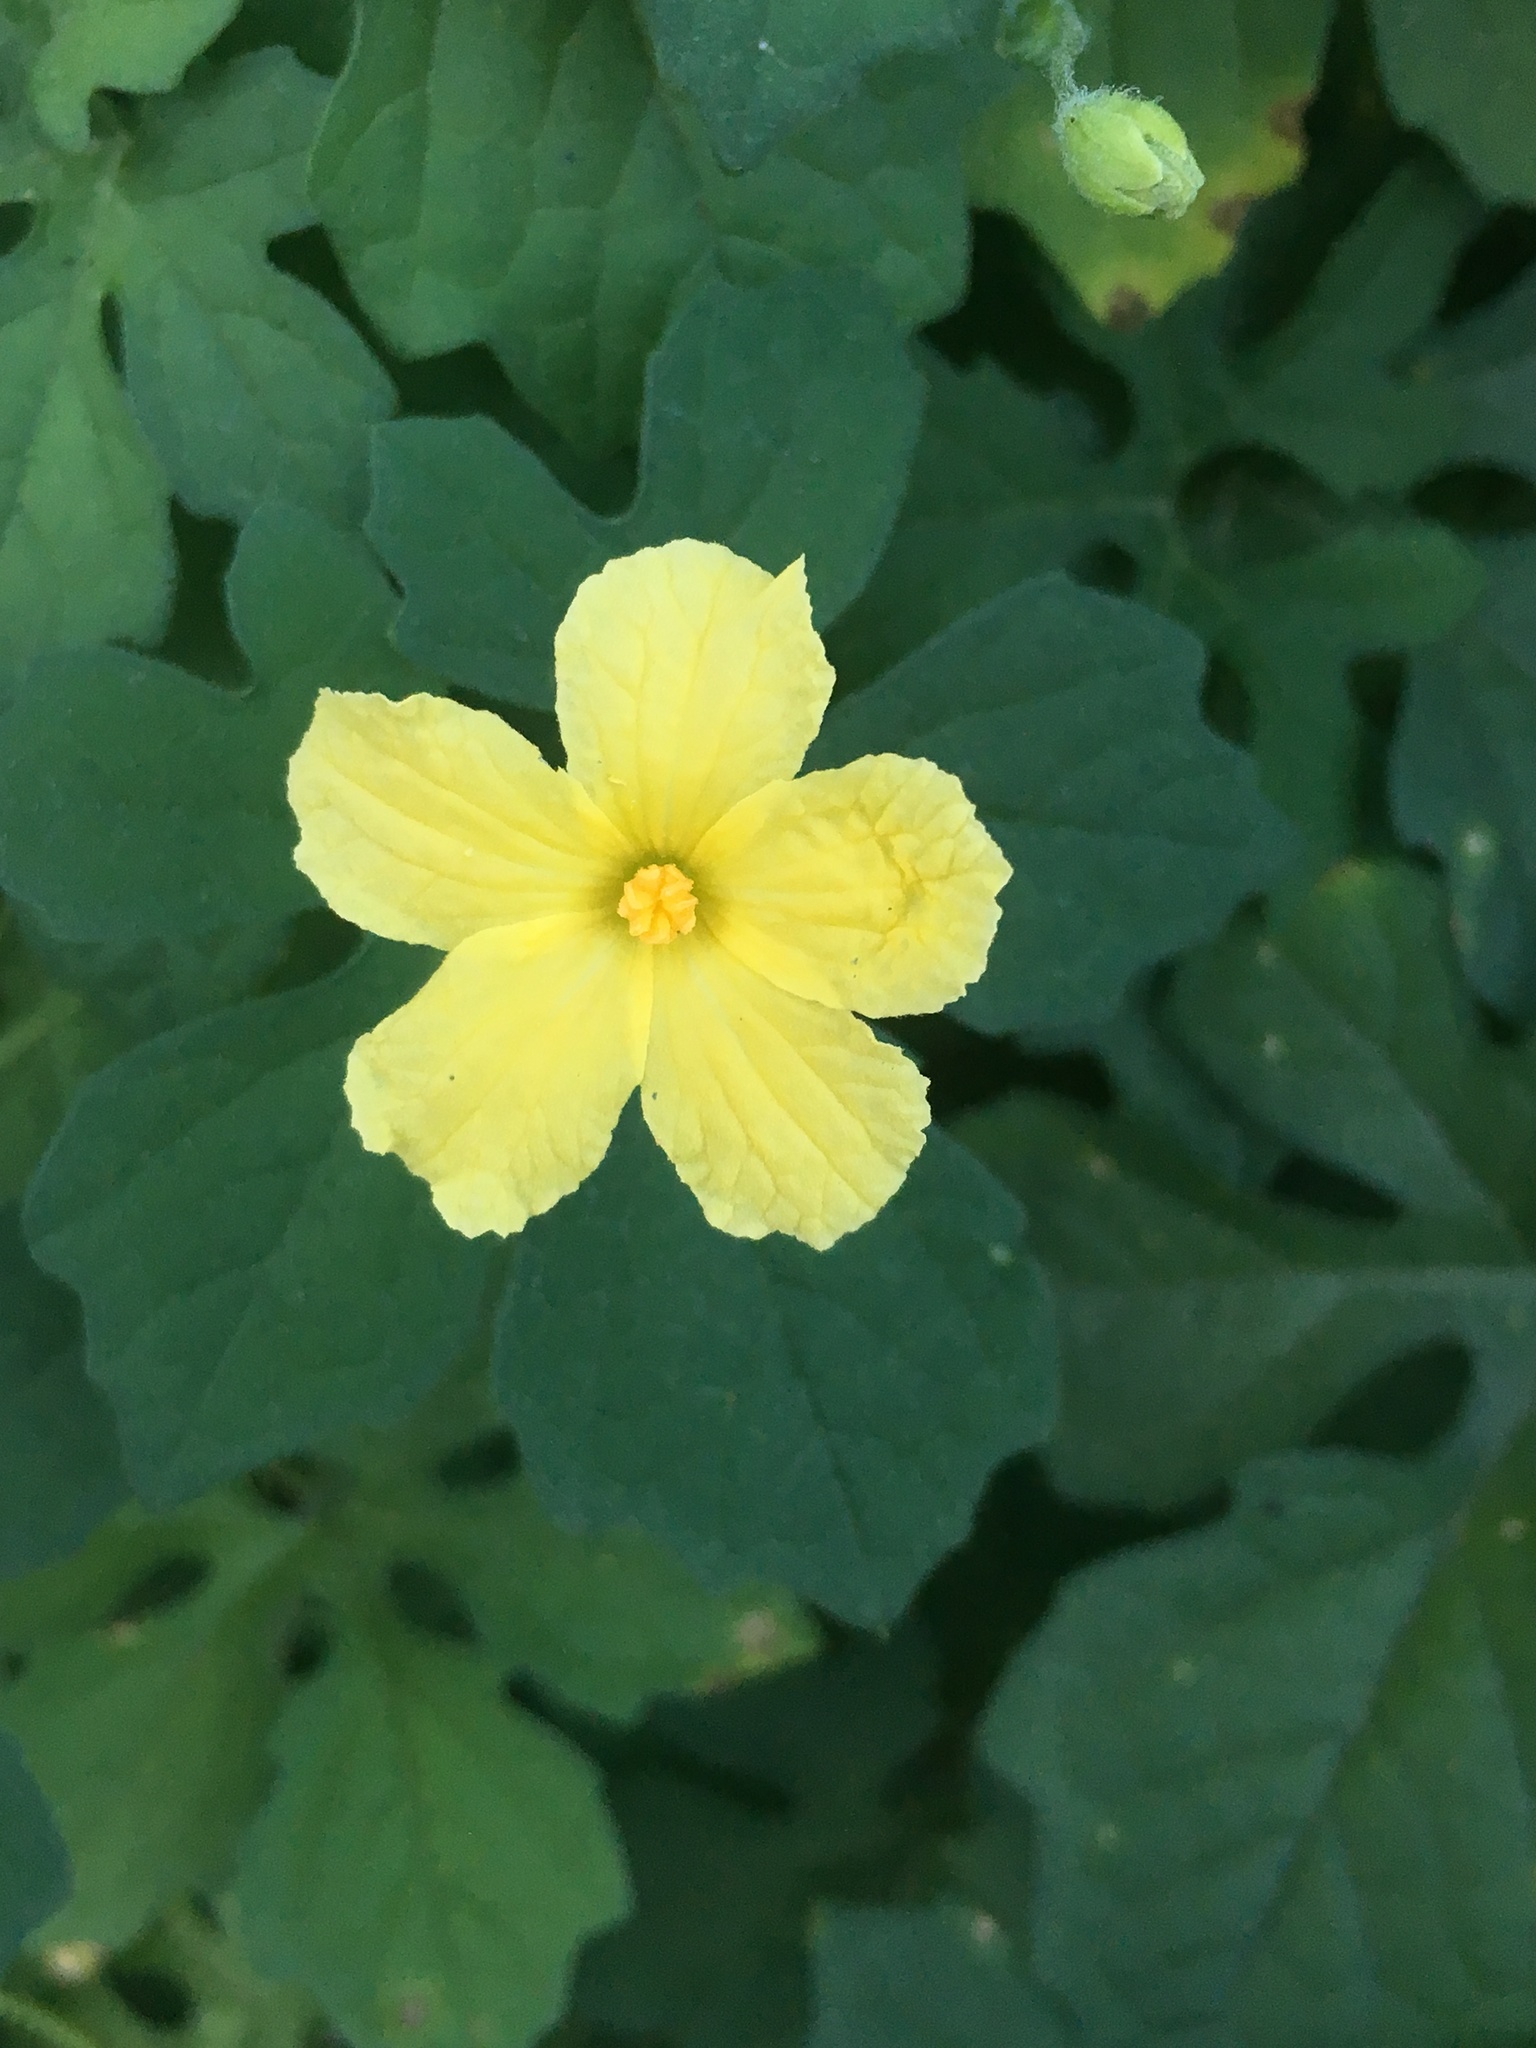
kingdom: Plantae
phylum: Tracheophyta
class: Magnoliopsida
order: Cucurbitales
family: Cucurbitaceae
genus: Momordica
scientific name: Momordica charantia
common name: Balsampear
